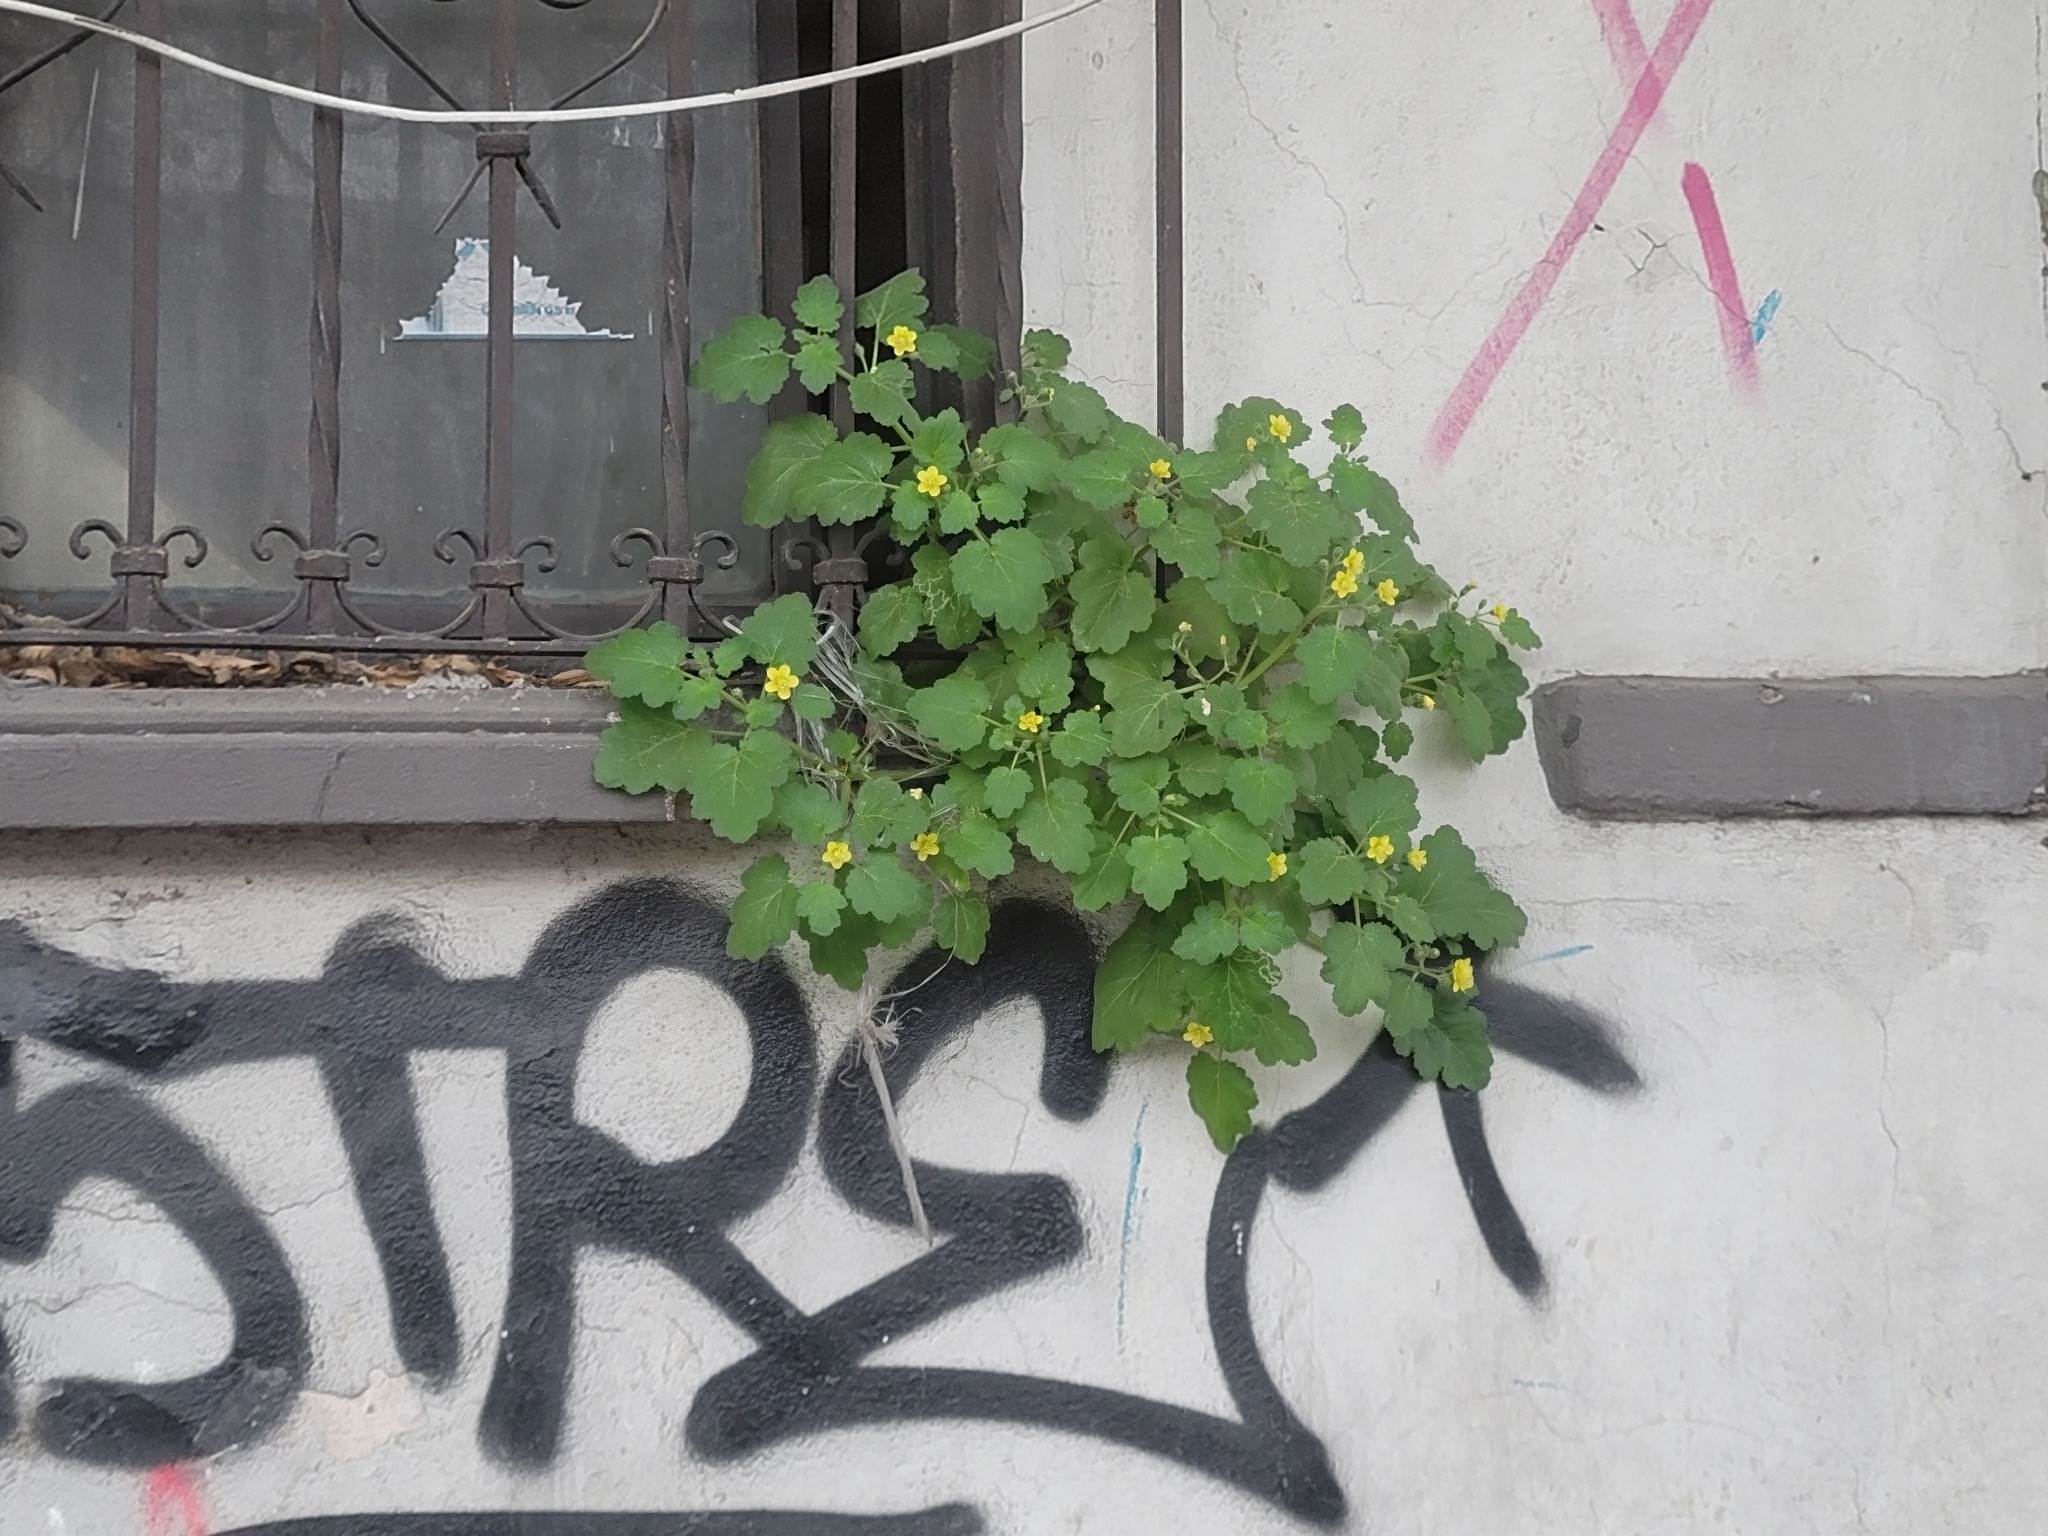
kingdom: Plantae
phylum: Tracheophyta
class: Magnoliopsida
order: Cornales
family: Loasaceae
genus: Eucnide
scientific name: Eucnide lobata
